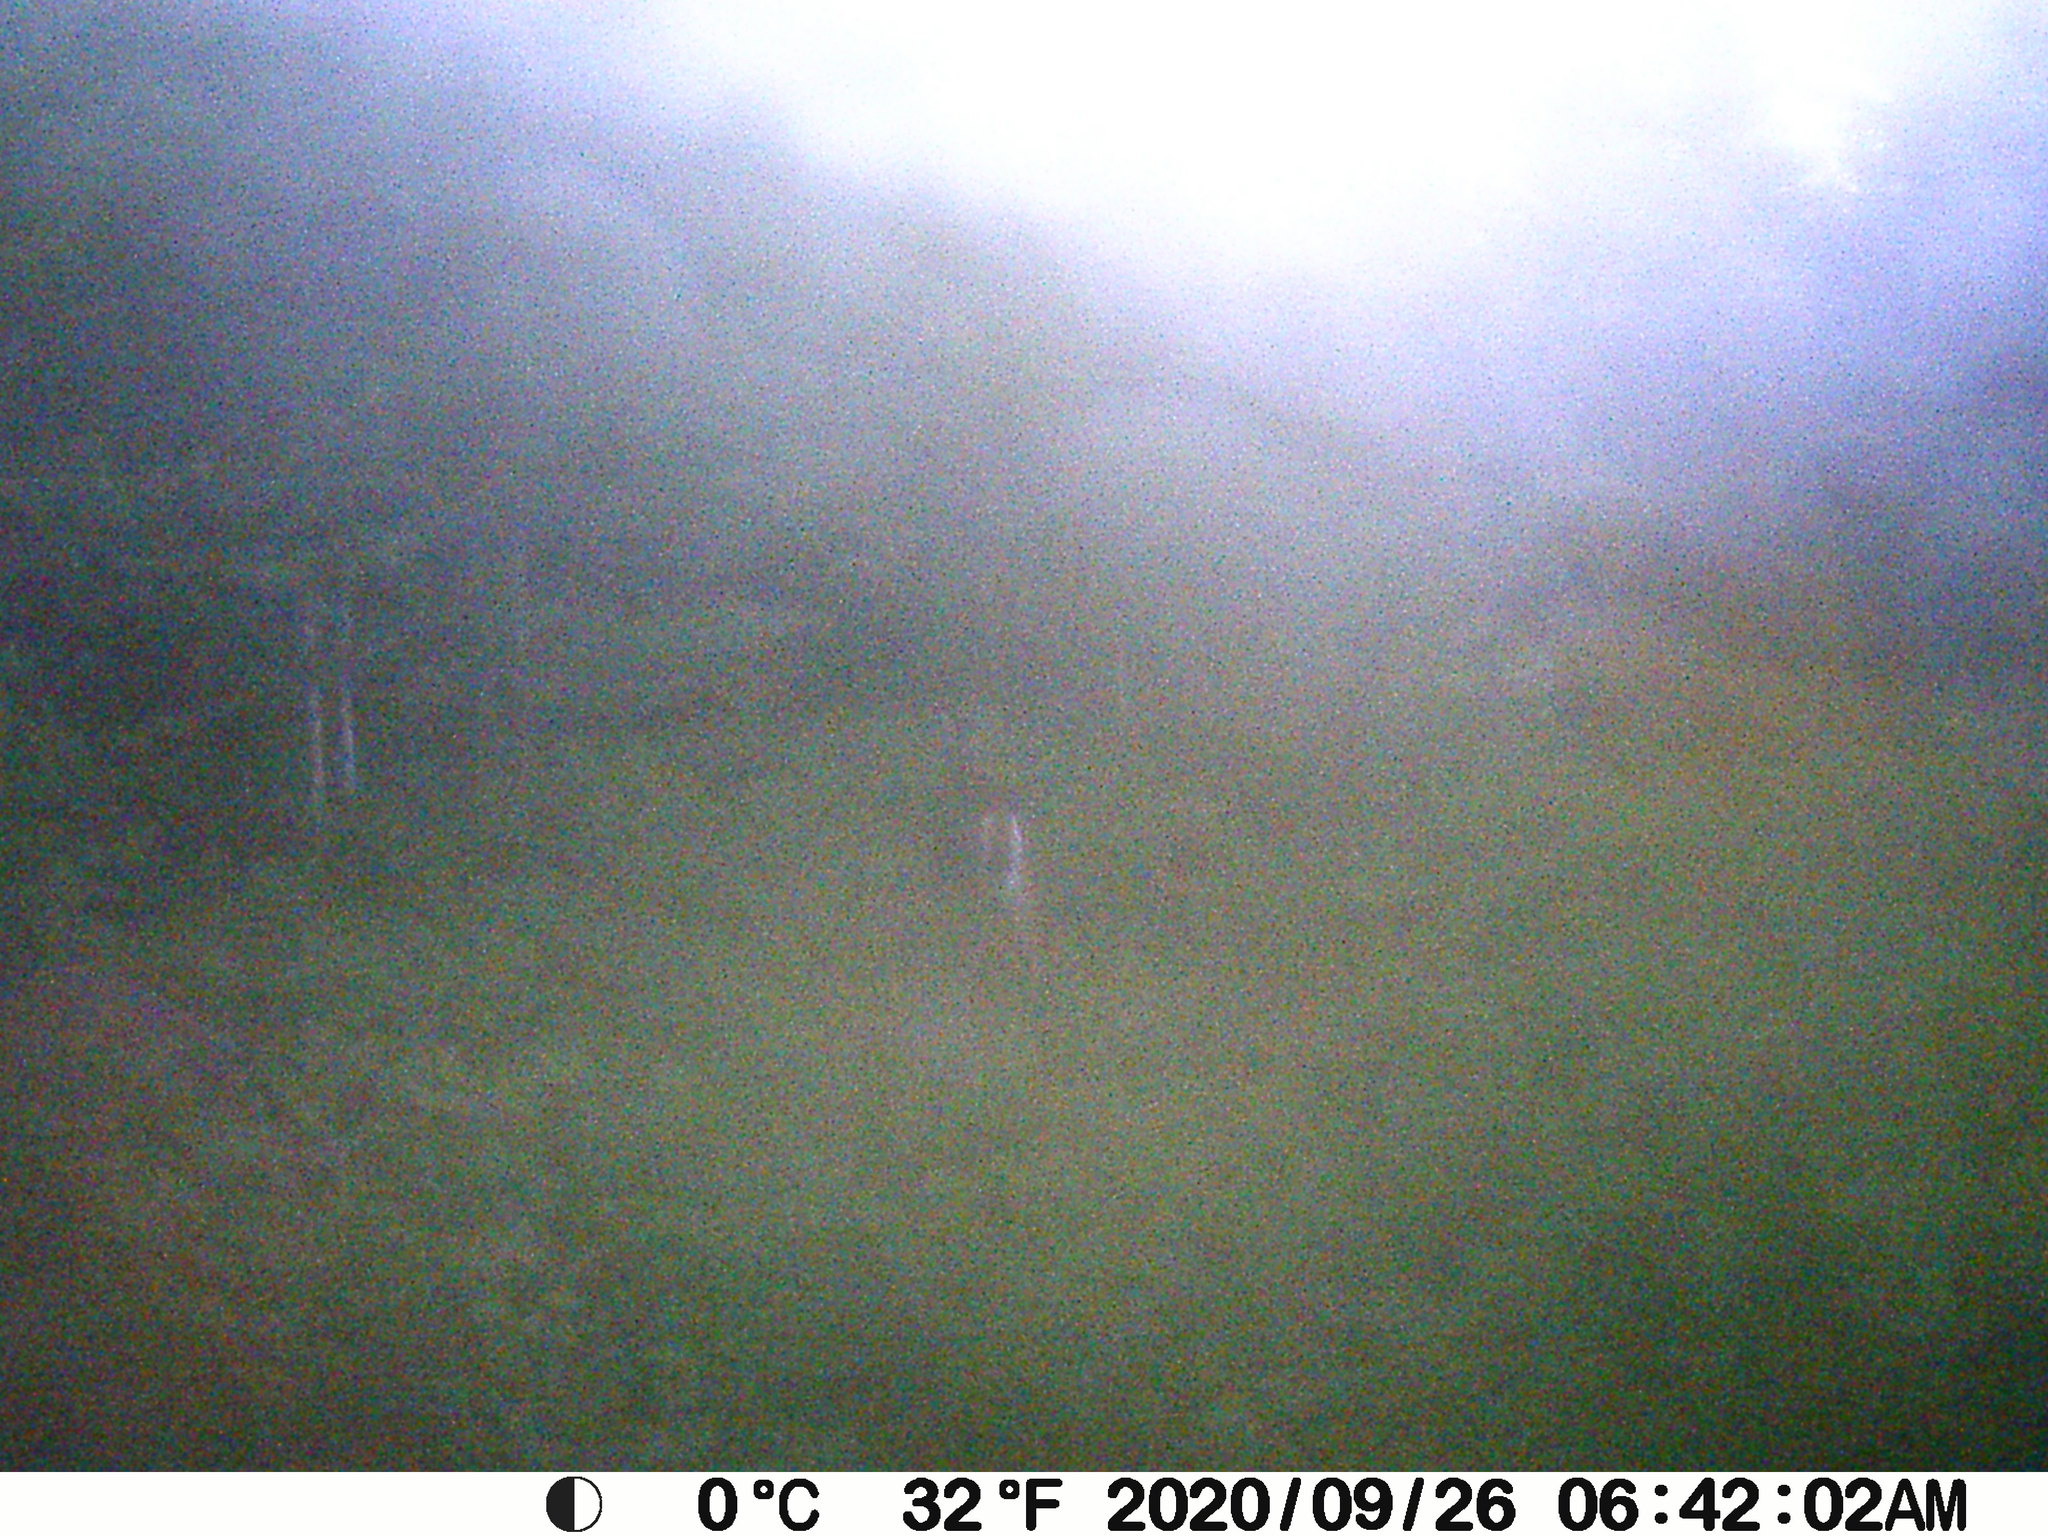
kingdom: Animalia
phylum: Chordata
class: Mammalia
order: Artiodactyla
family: Cervidae
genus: Odocoileus
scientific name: Odocoileus virginianus
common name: White-tailed deer
